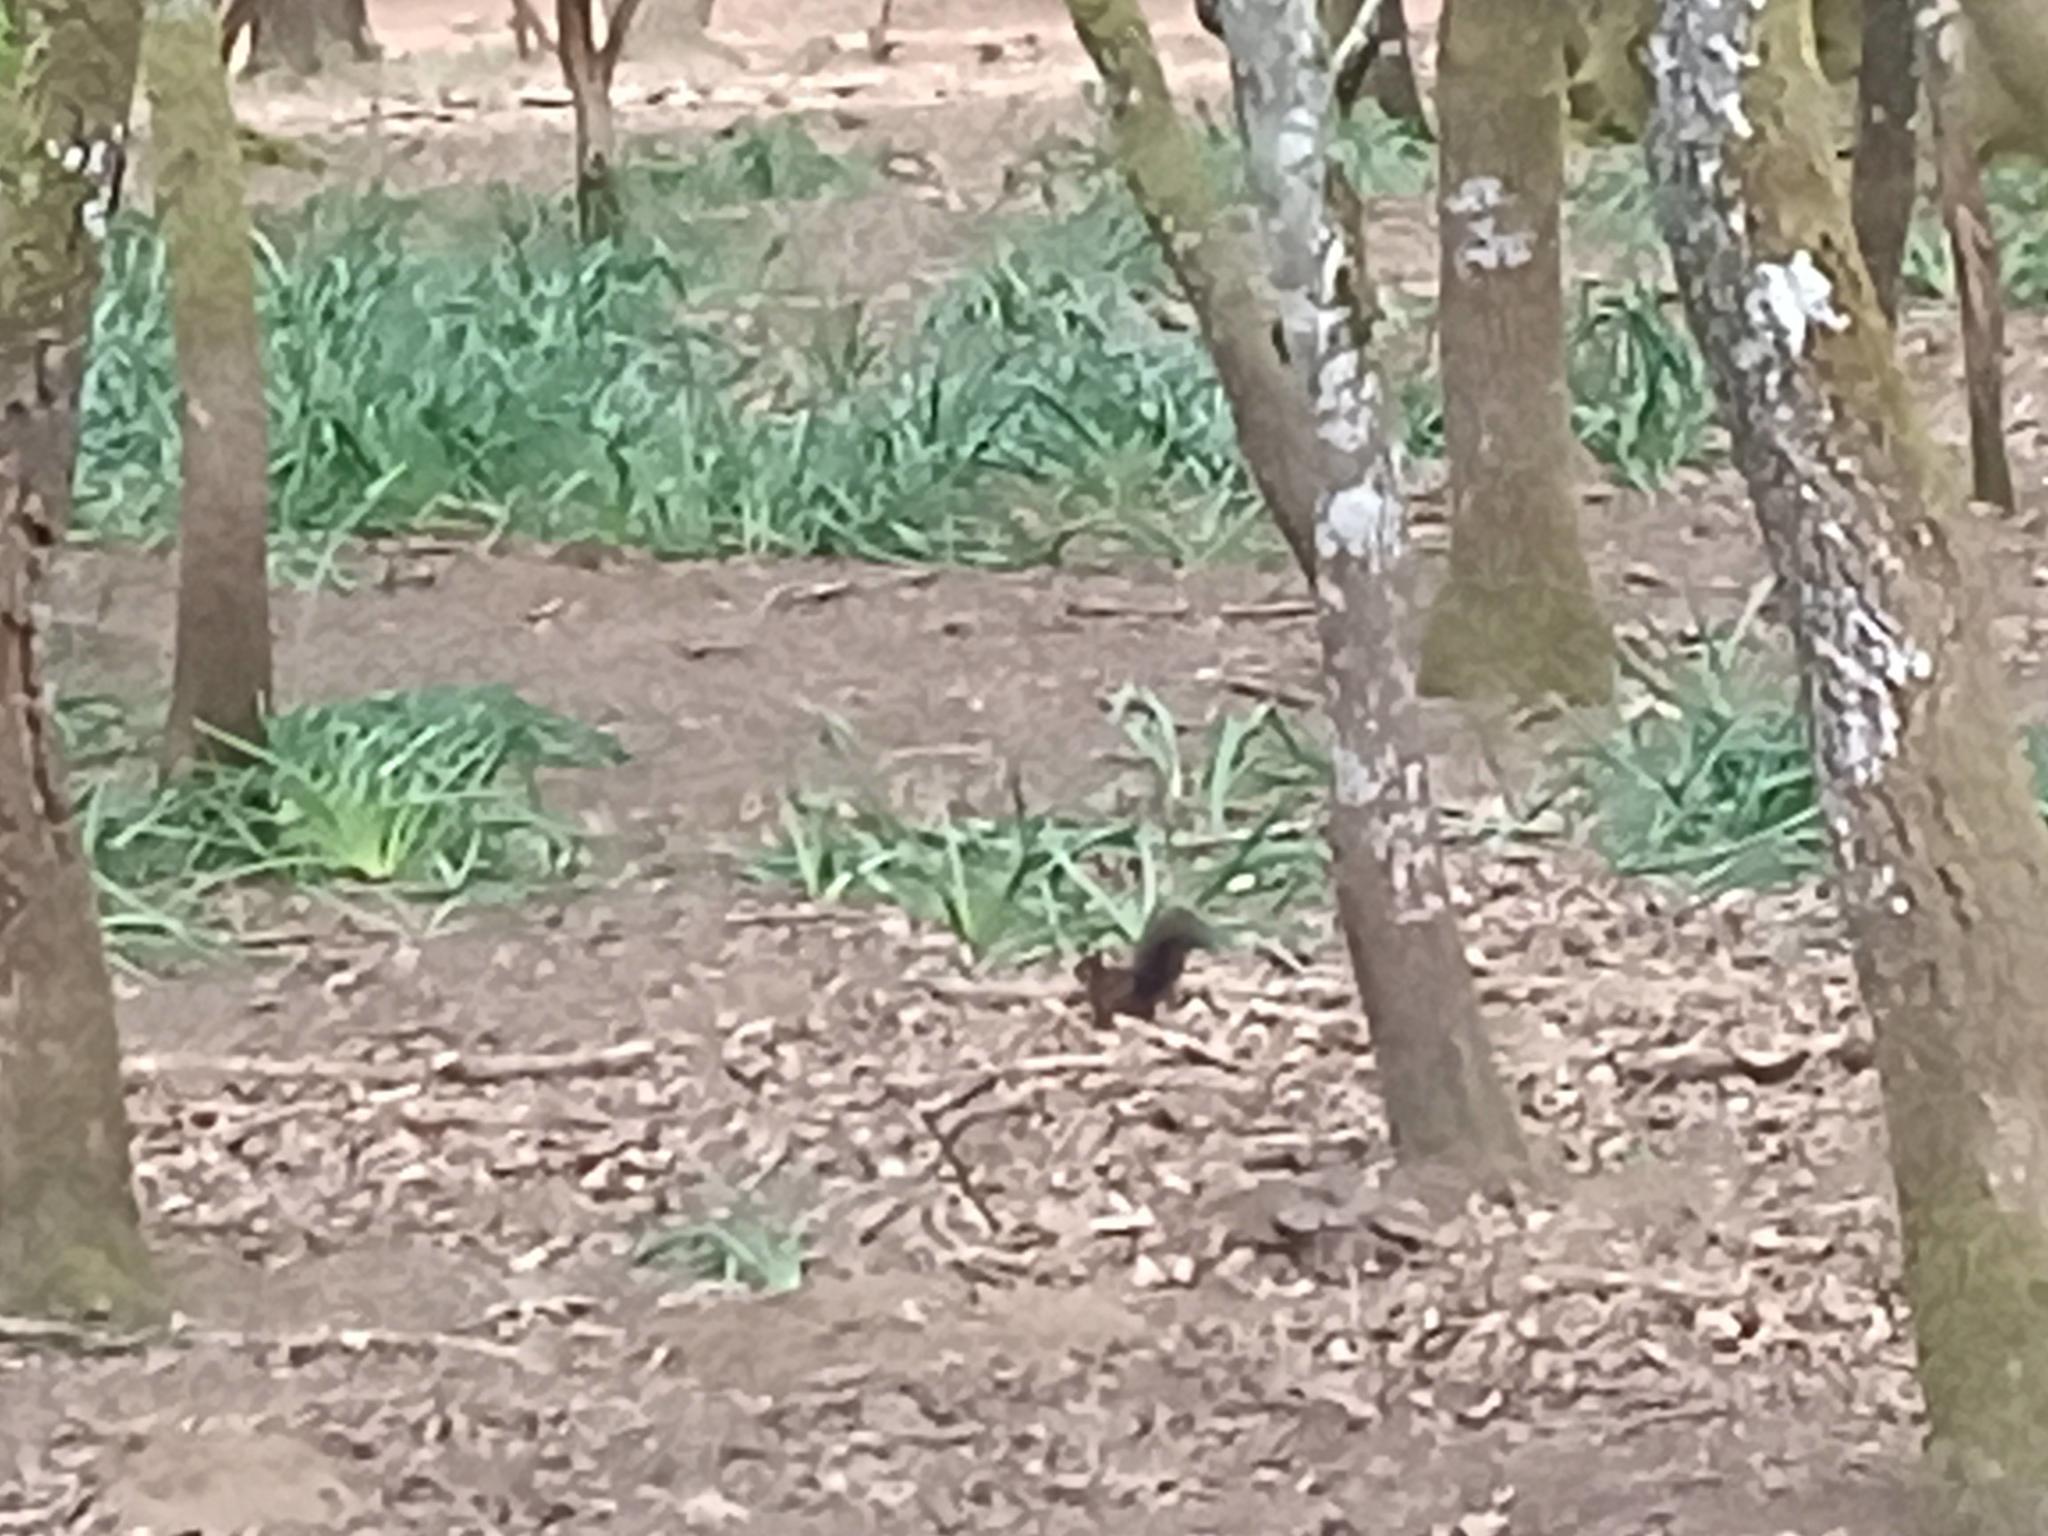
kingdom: Animalia
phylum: Chordata
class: Mammalia
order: Rodentia
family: Sciuridae
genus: Sciurus
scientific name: Sciurus vulgaris
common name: Eurasian red squirrel
